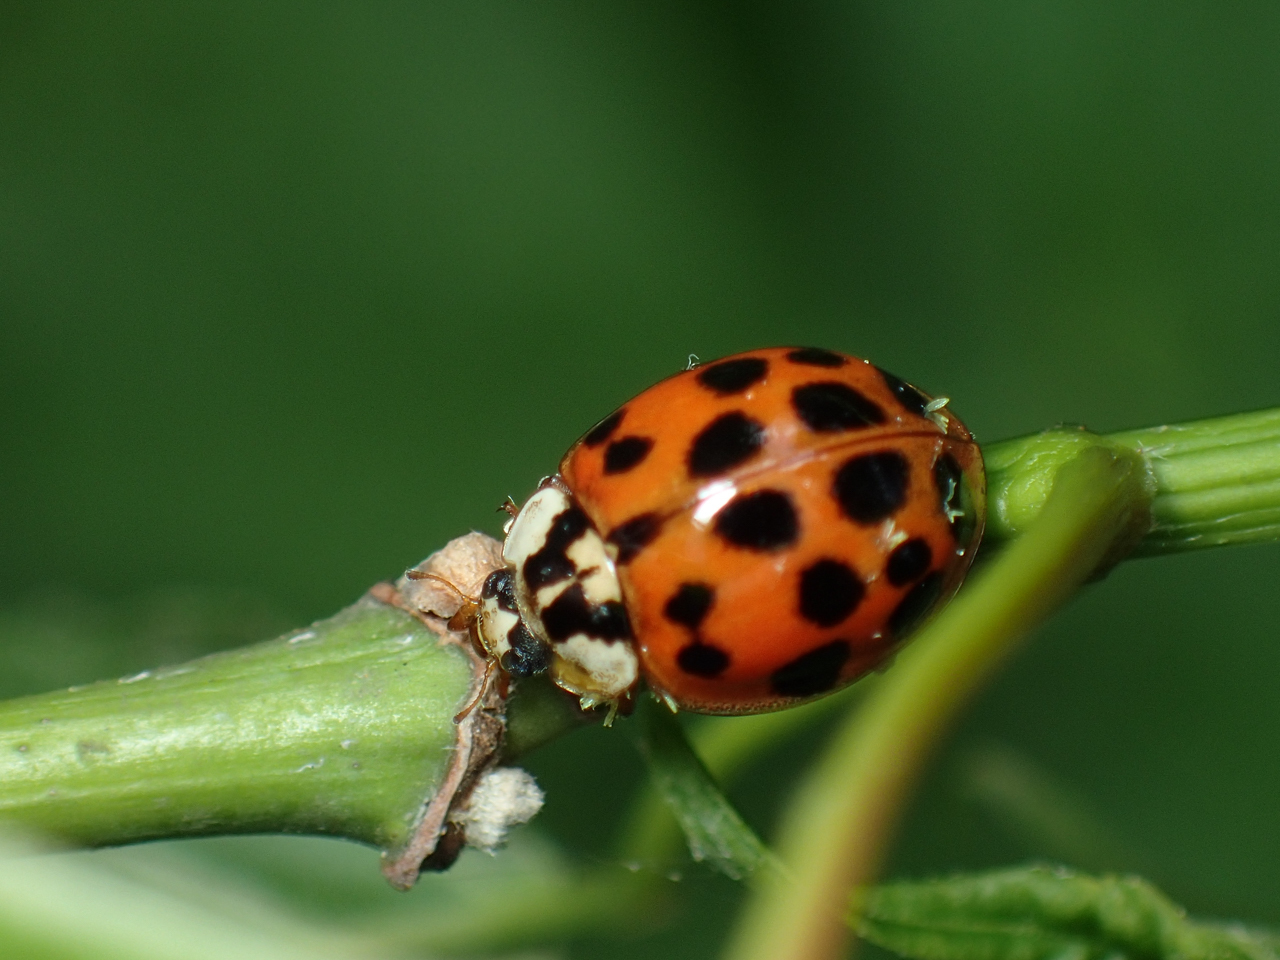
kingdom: Animalia
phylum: Arthropoda
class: Insecta
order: Coleoptera
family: Coccinellidae
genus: Harmonia
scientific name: Harmonia axyridis
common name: Harlequin ladybird
